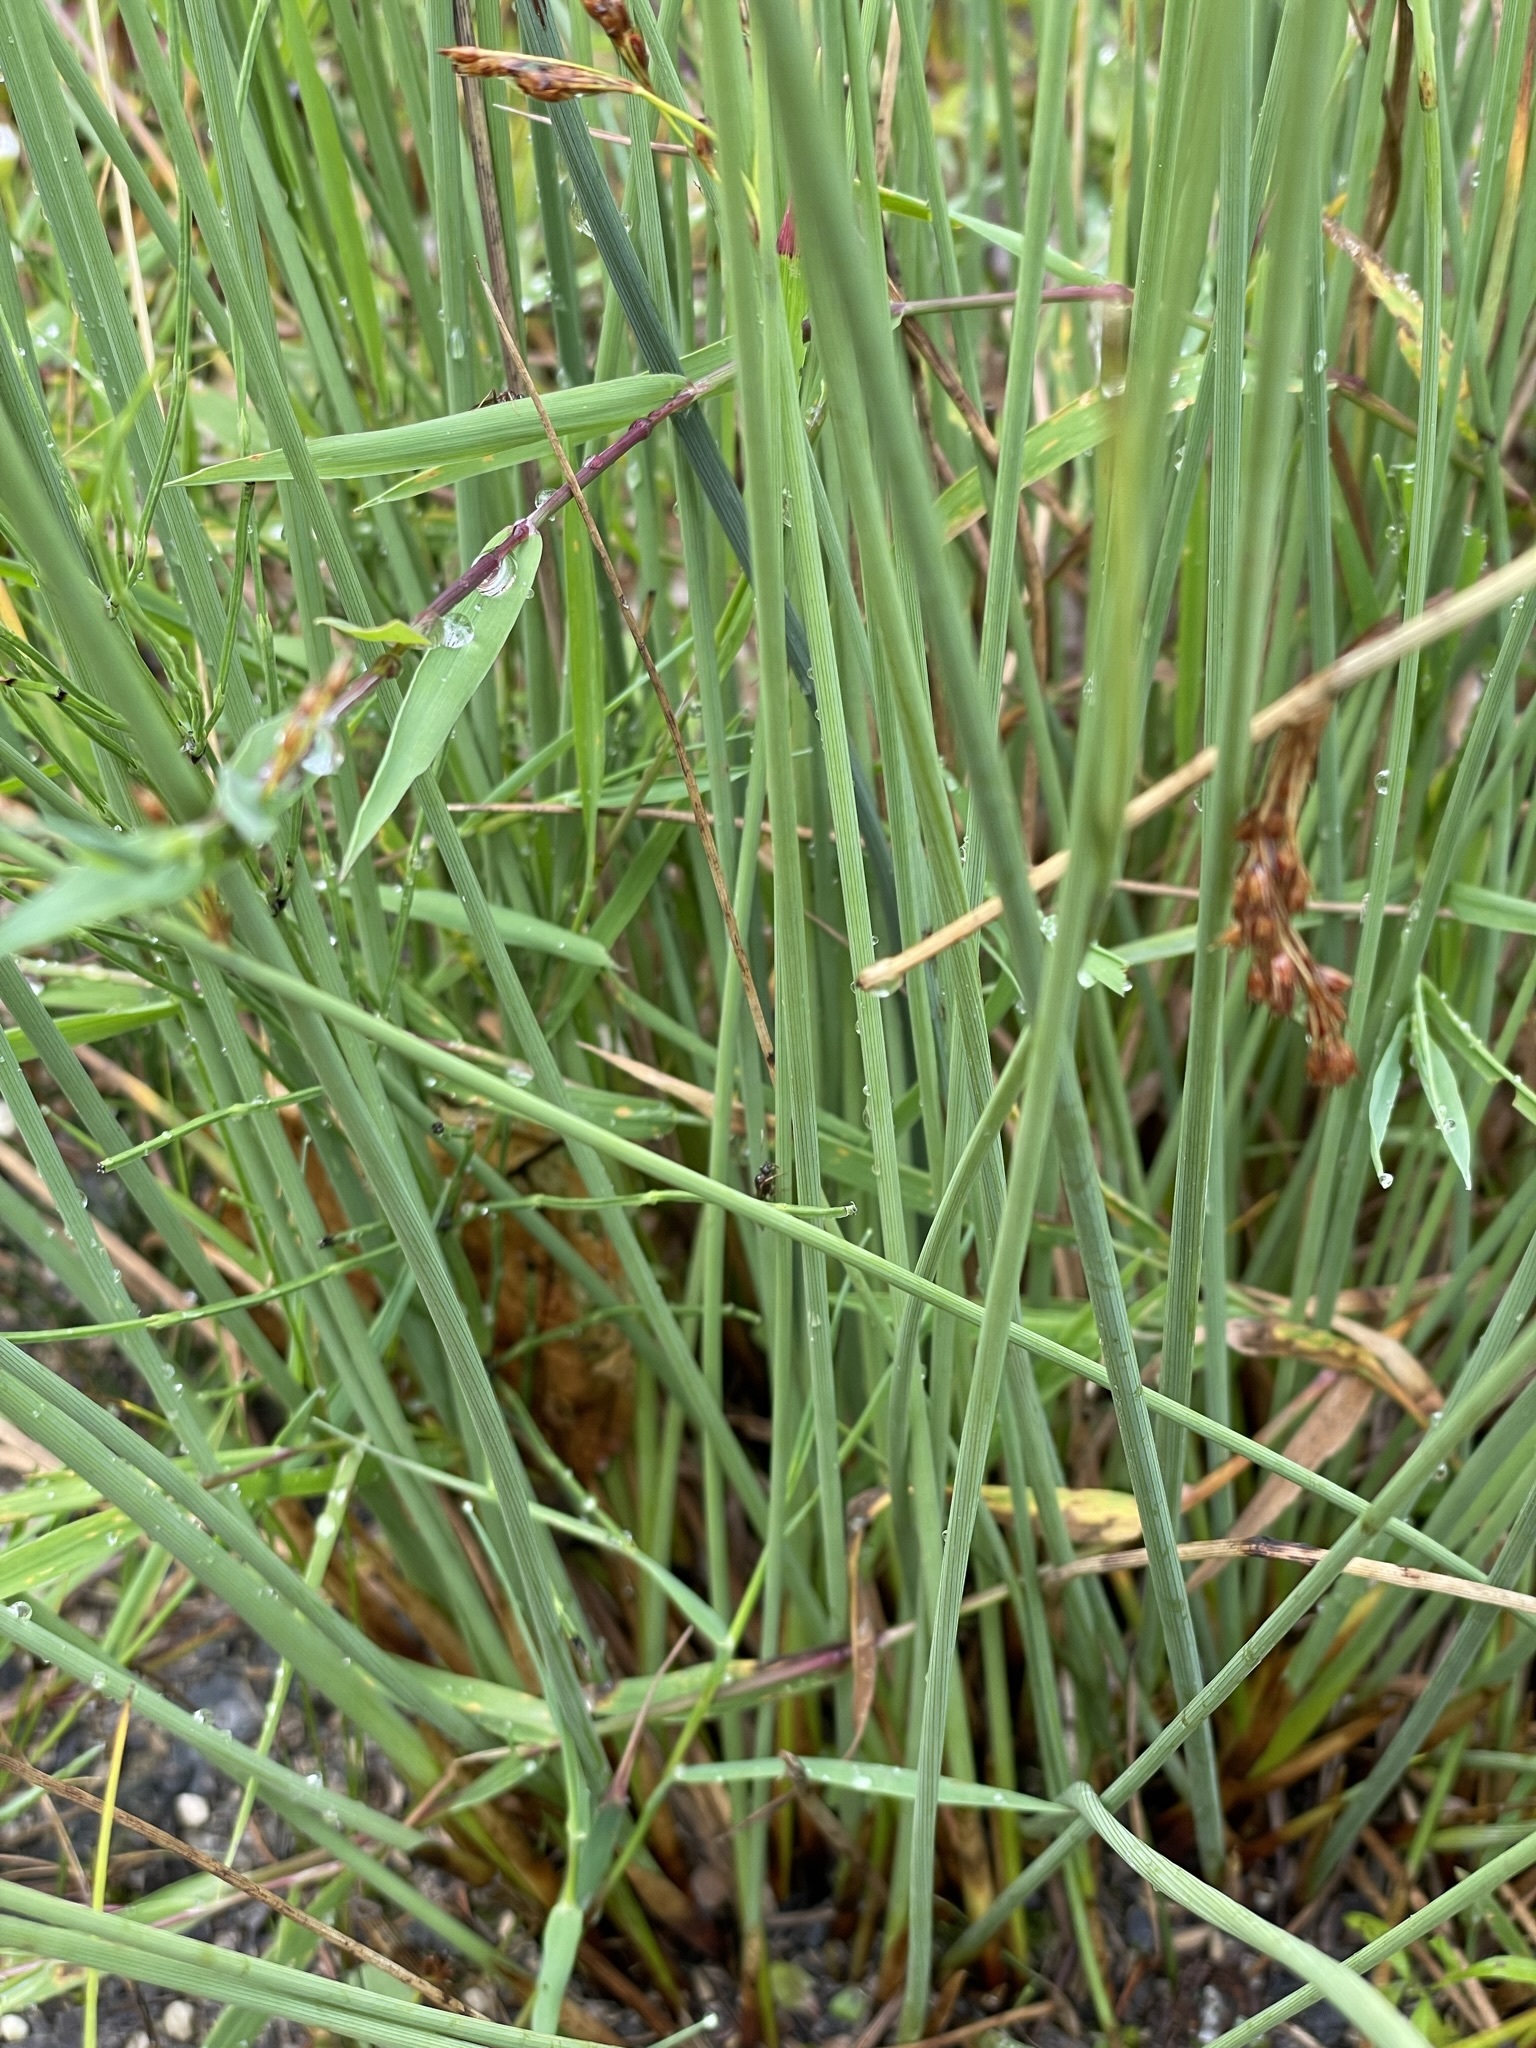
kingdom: Plantae
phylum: Tracheophyta
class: Liliopsida
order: Poales
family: Juncaceae
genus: Juncus
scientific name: Juncus inflexus
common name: Hard rush
